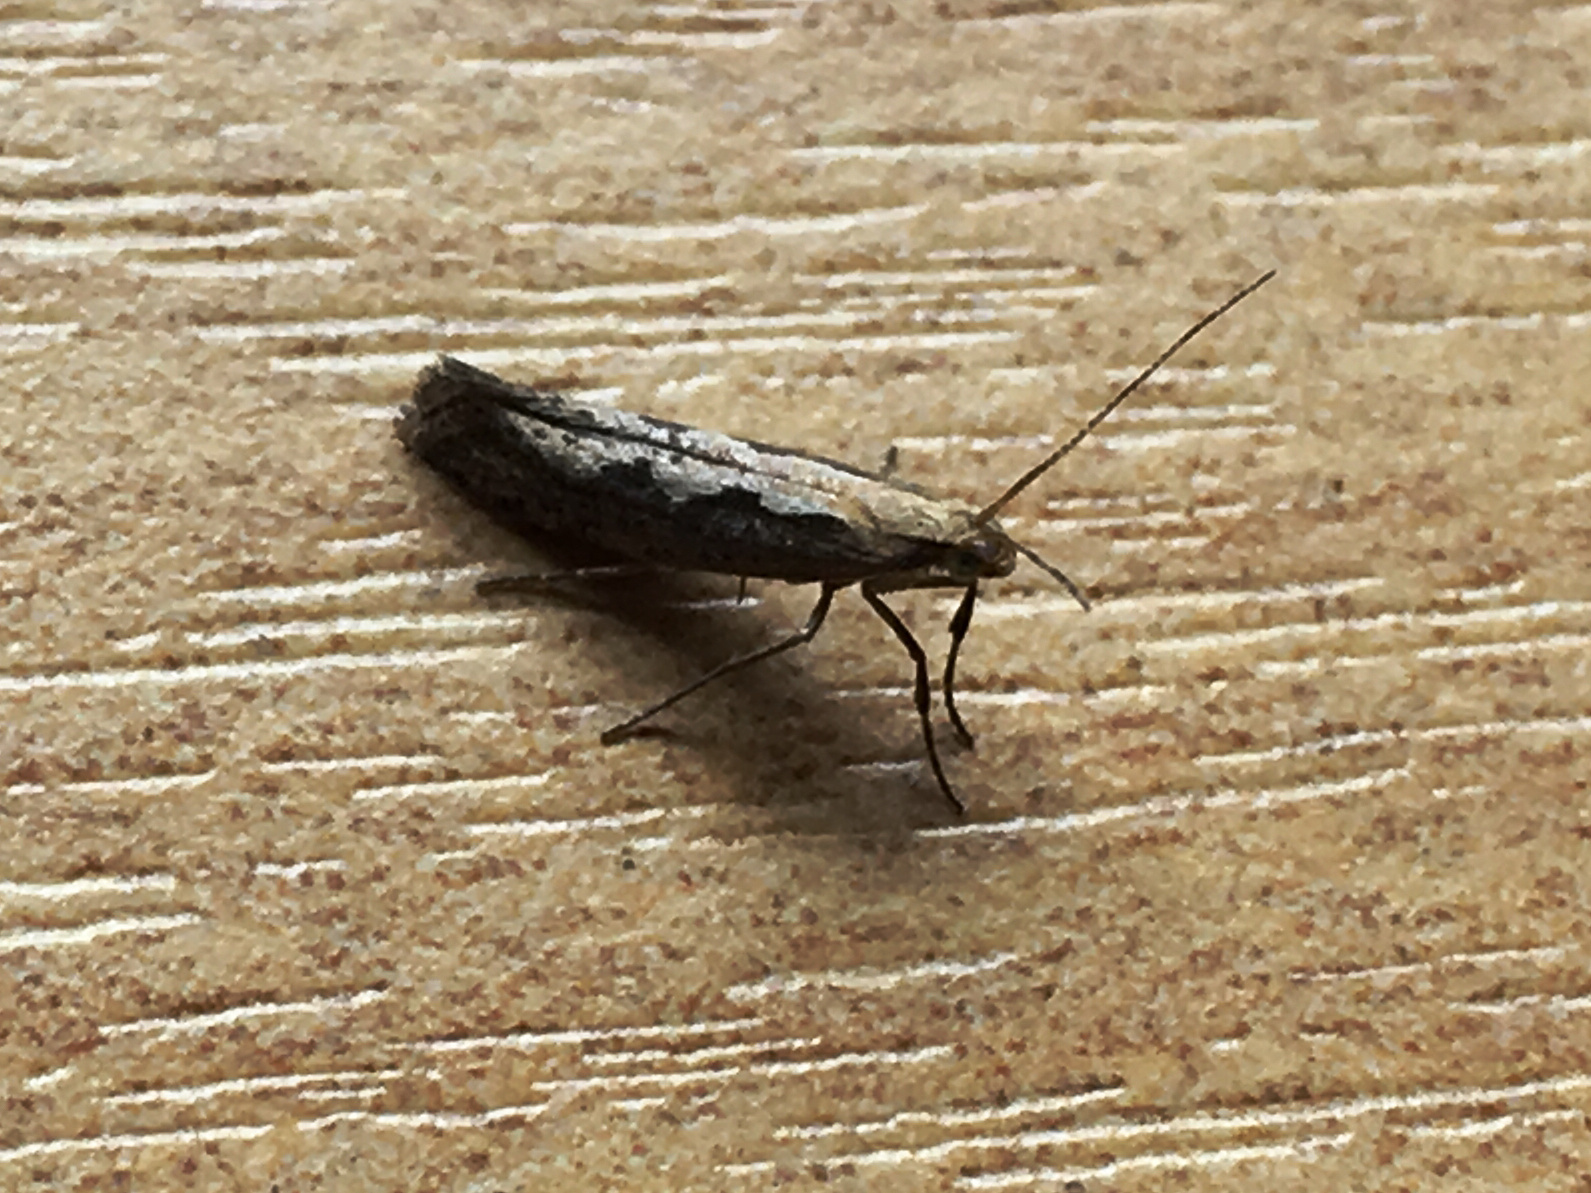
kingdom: Animalia
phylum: Arthropoda
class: Insecta
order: Lepidoptera
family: Plutellidae
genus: Plutella
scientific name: Plutella xylostella
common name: Diamond-back moth
